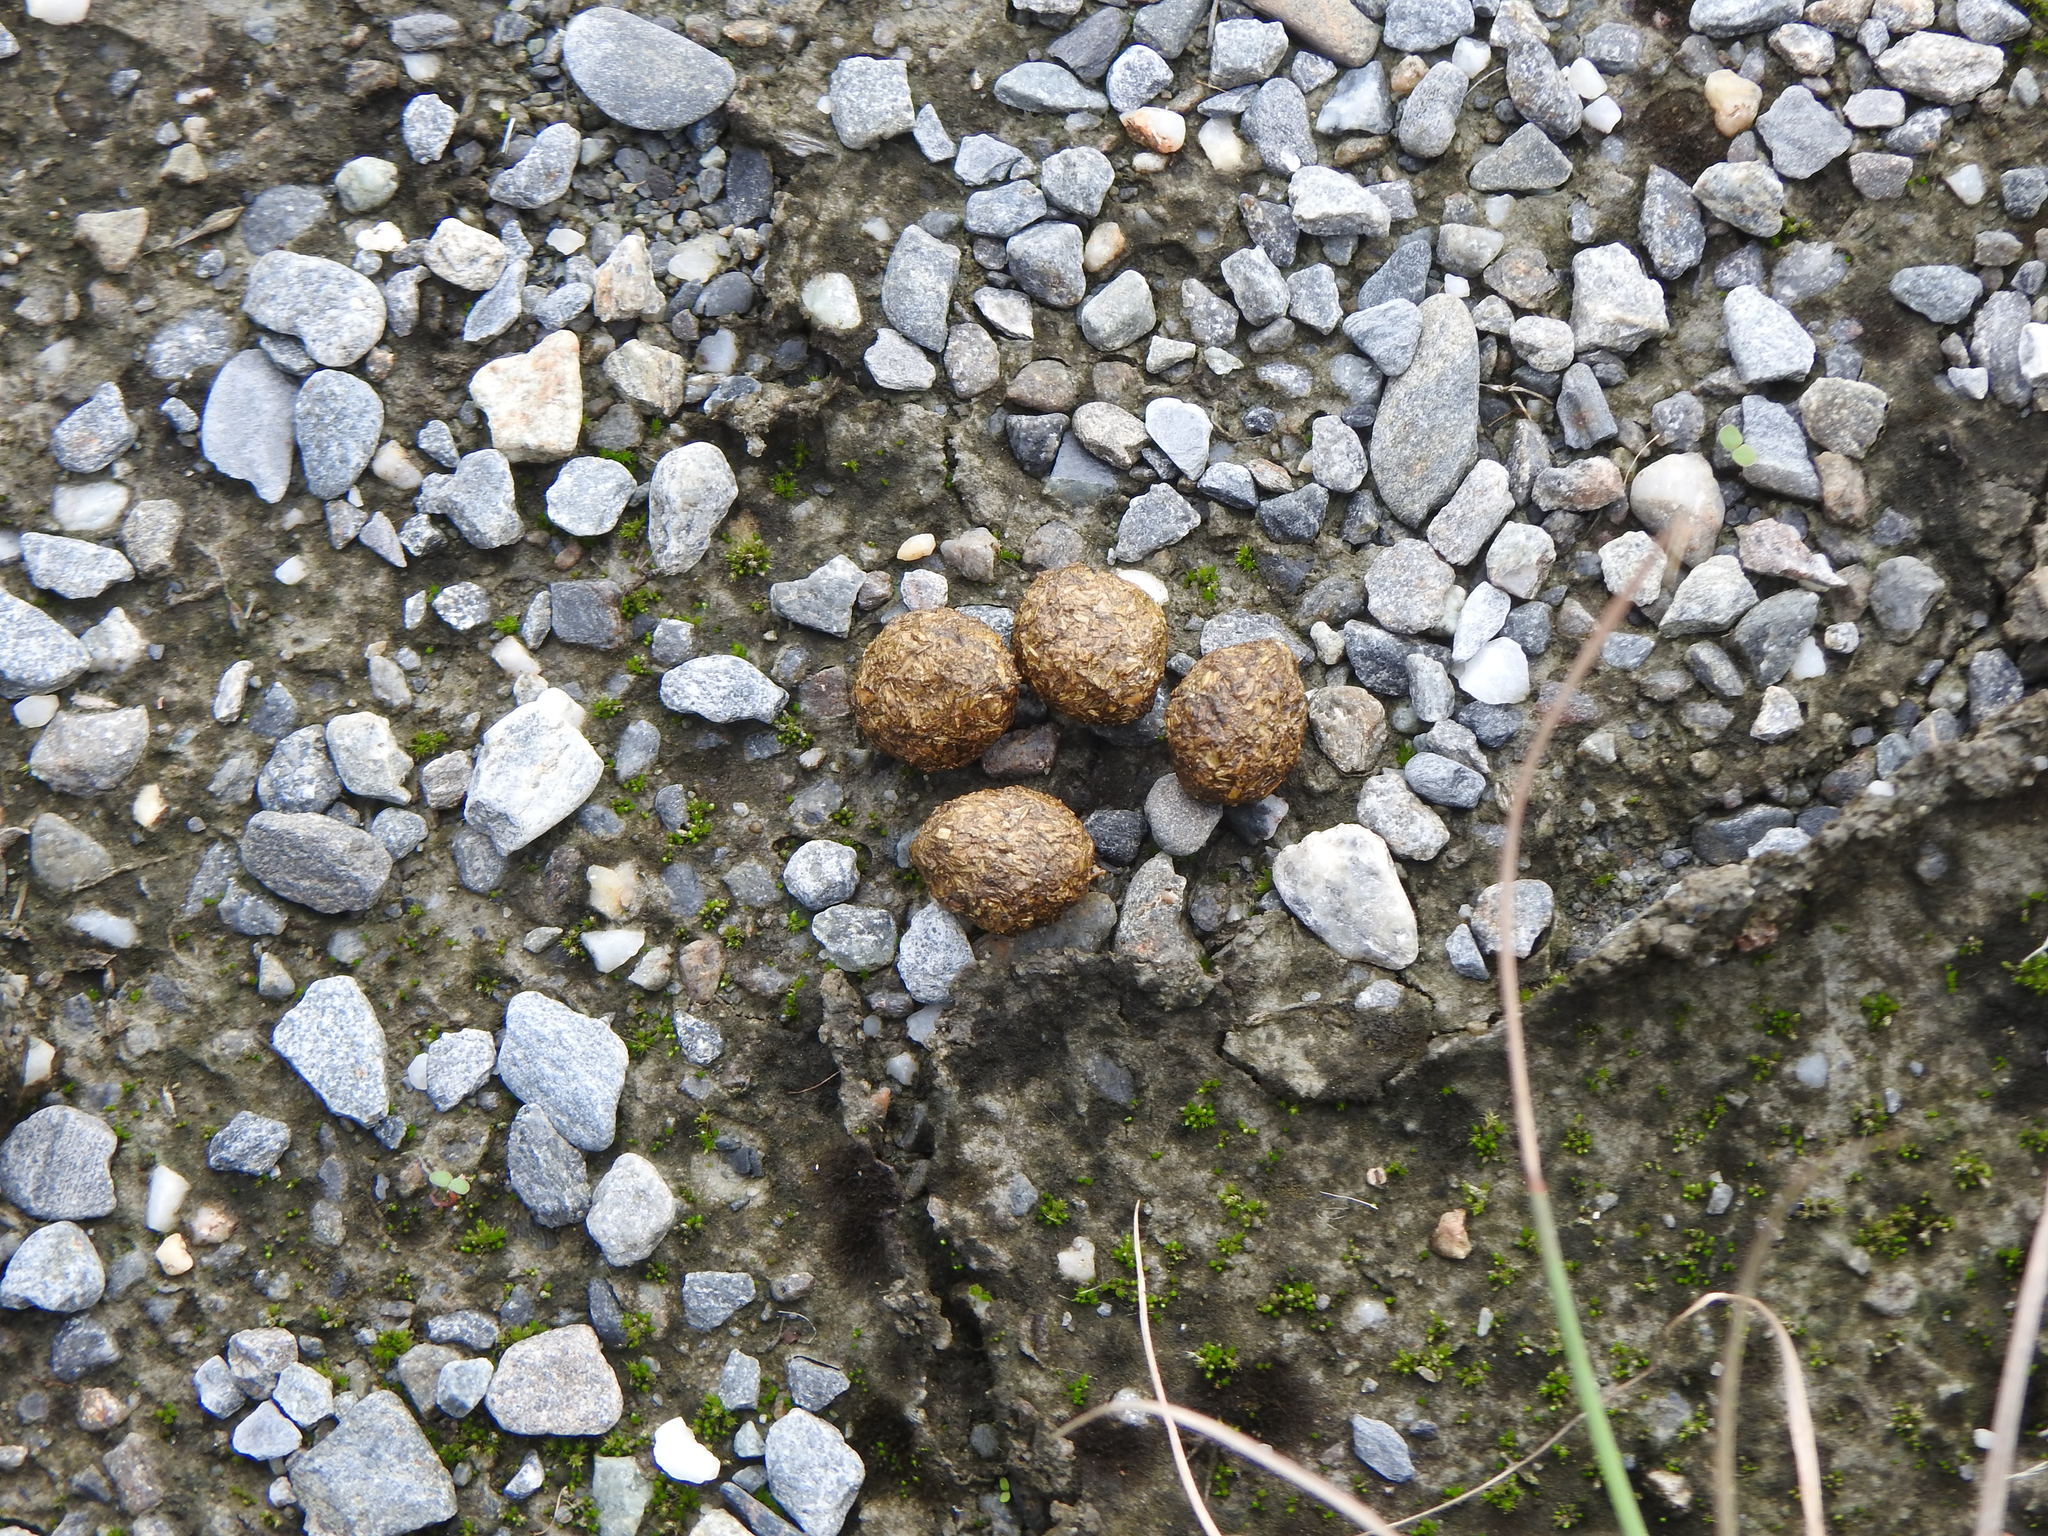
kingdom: Animalia
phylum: Chordata
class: Mammalia
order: Lagomorpha
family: Leporidae
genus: Lepus
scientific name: Lepus sinensis
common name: Chinese hare
